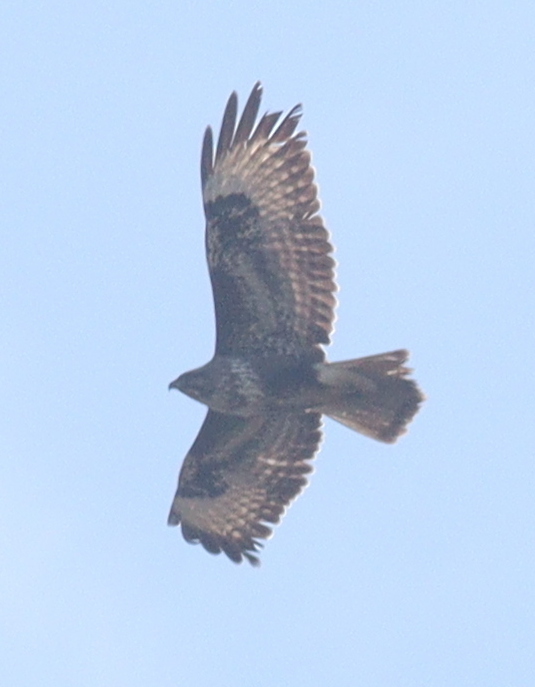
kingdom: Animalia
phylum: Chordata
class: Aves
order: Accipitriformes
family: Accipitridae
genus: Buteo
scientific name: Buteo buteo
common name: Common buzzard
